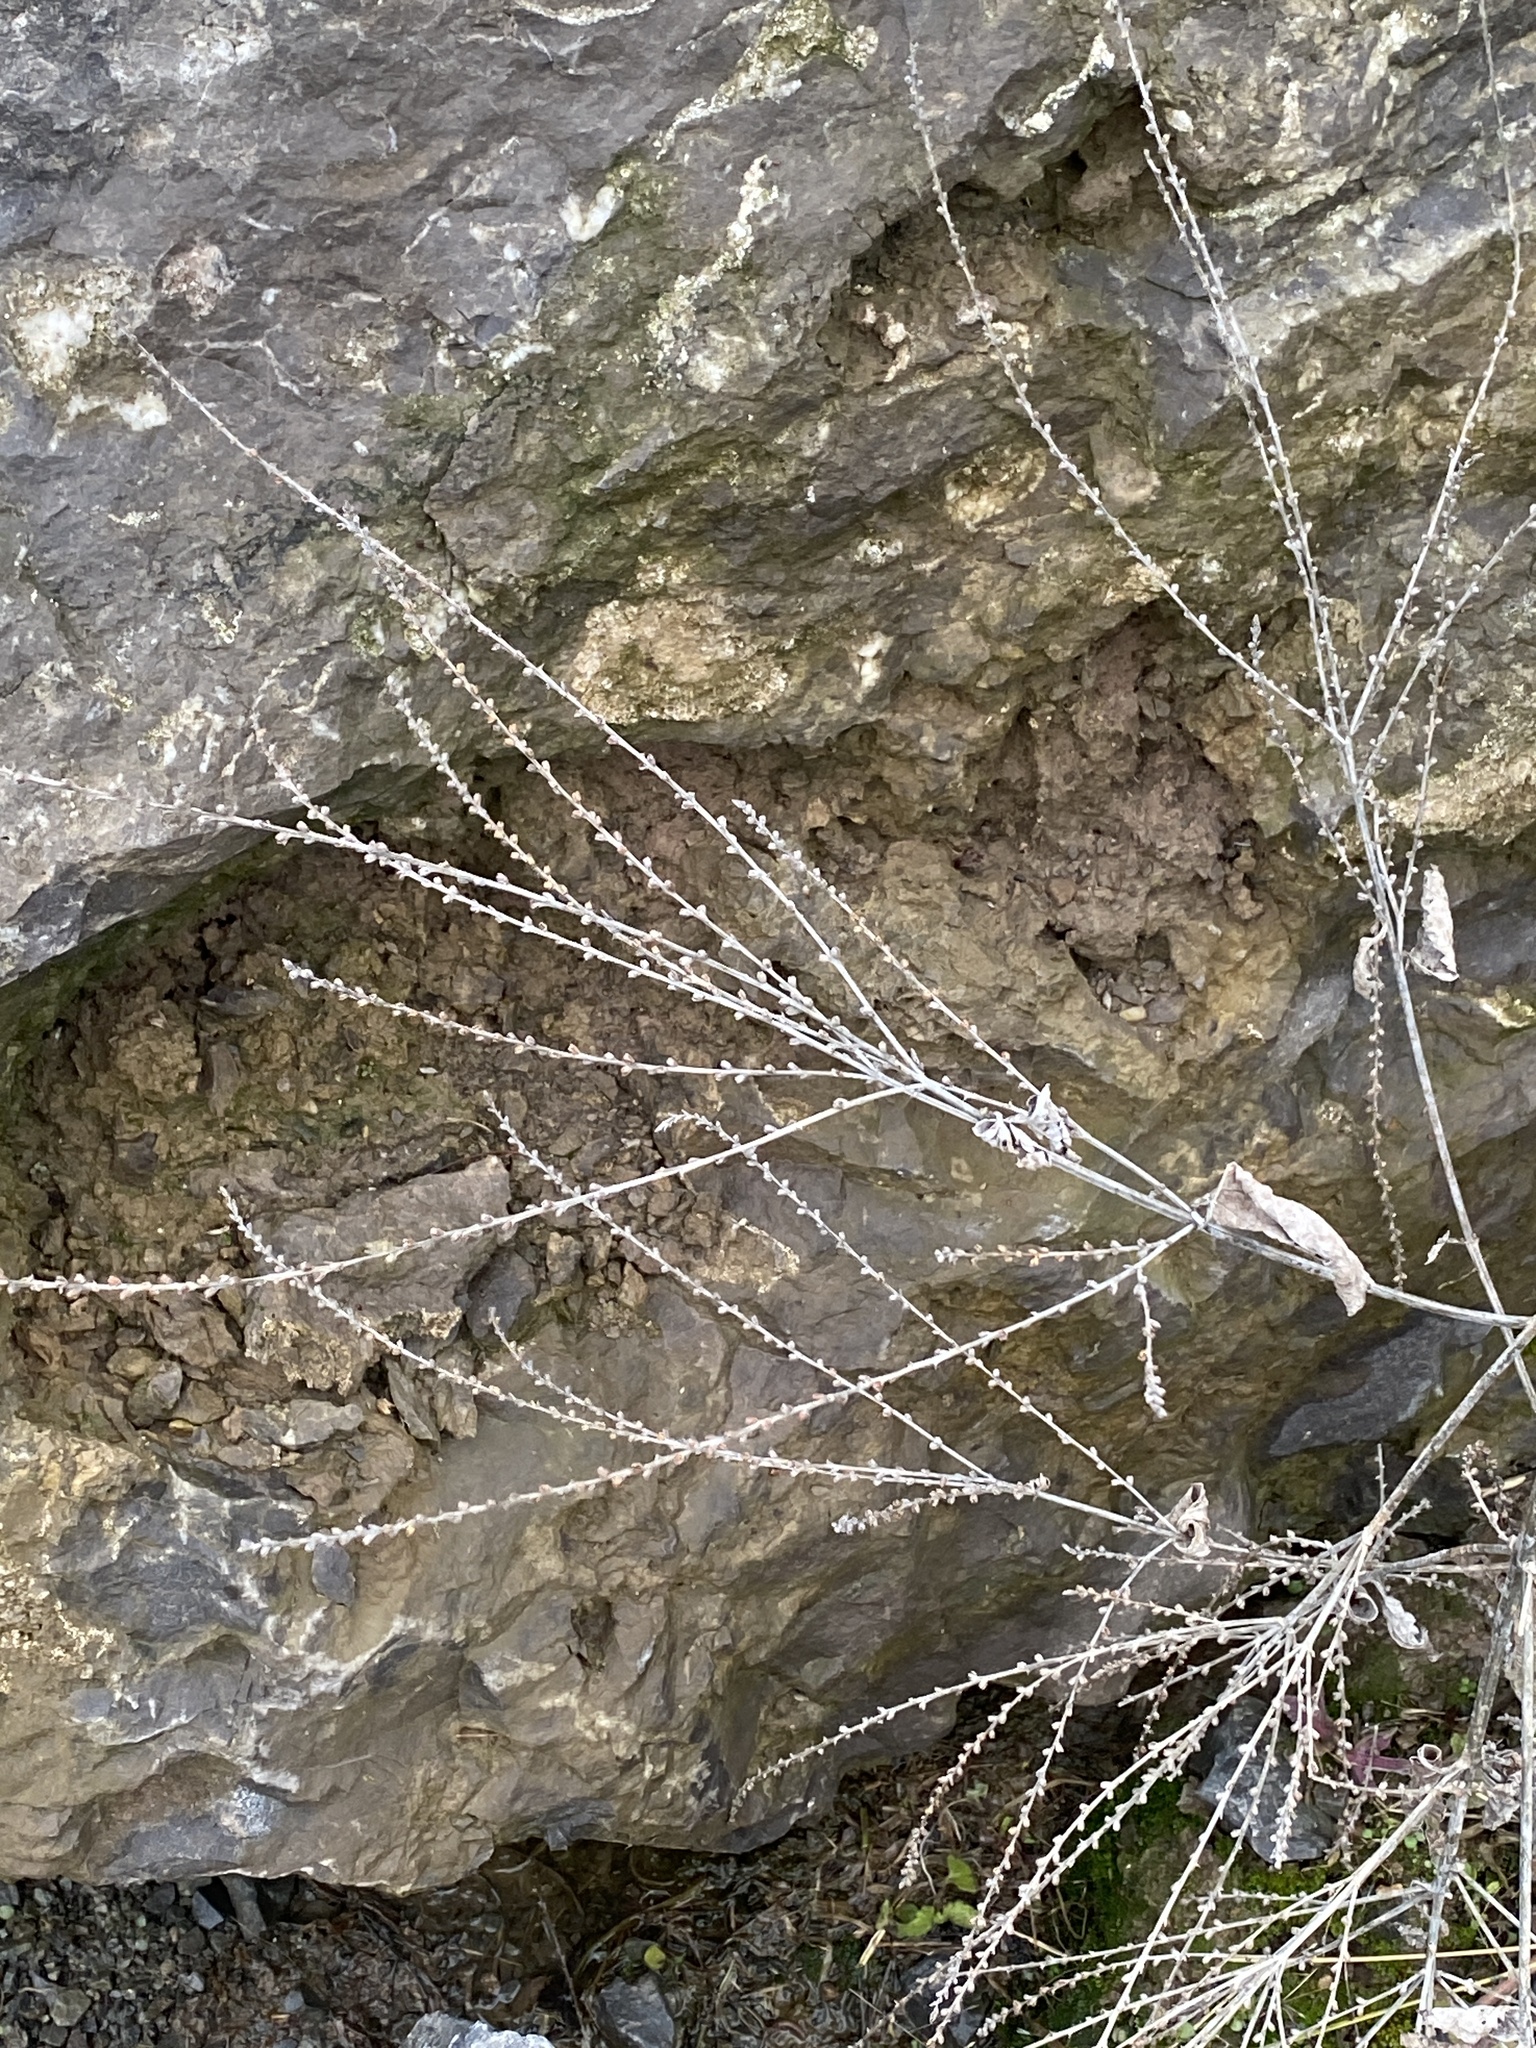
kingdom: Plantae
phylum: Tracheophyta
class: Magnoliopsida
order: Lamiales
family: Verbenaceae
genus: Verbena
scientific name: Verbena urticifolia
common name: Nettle-leaved vervain
